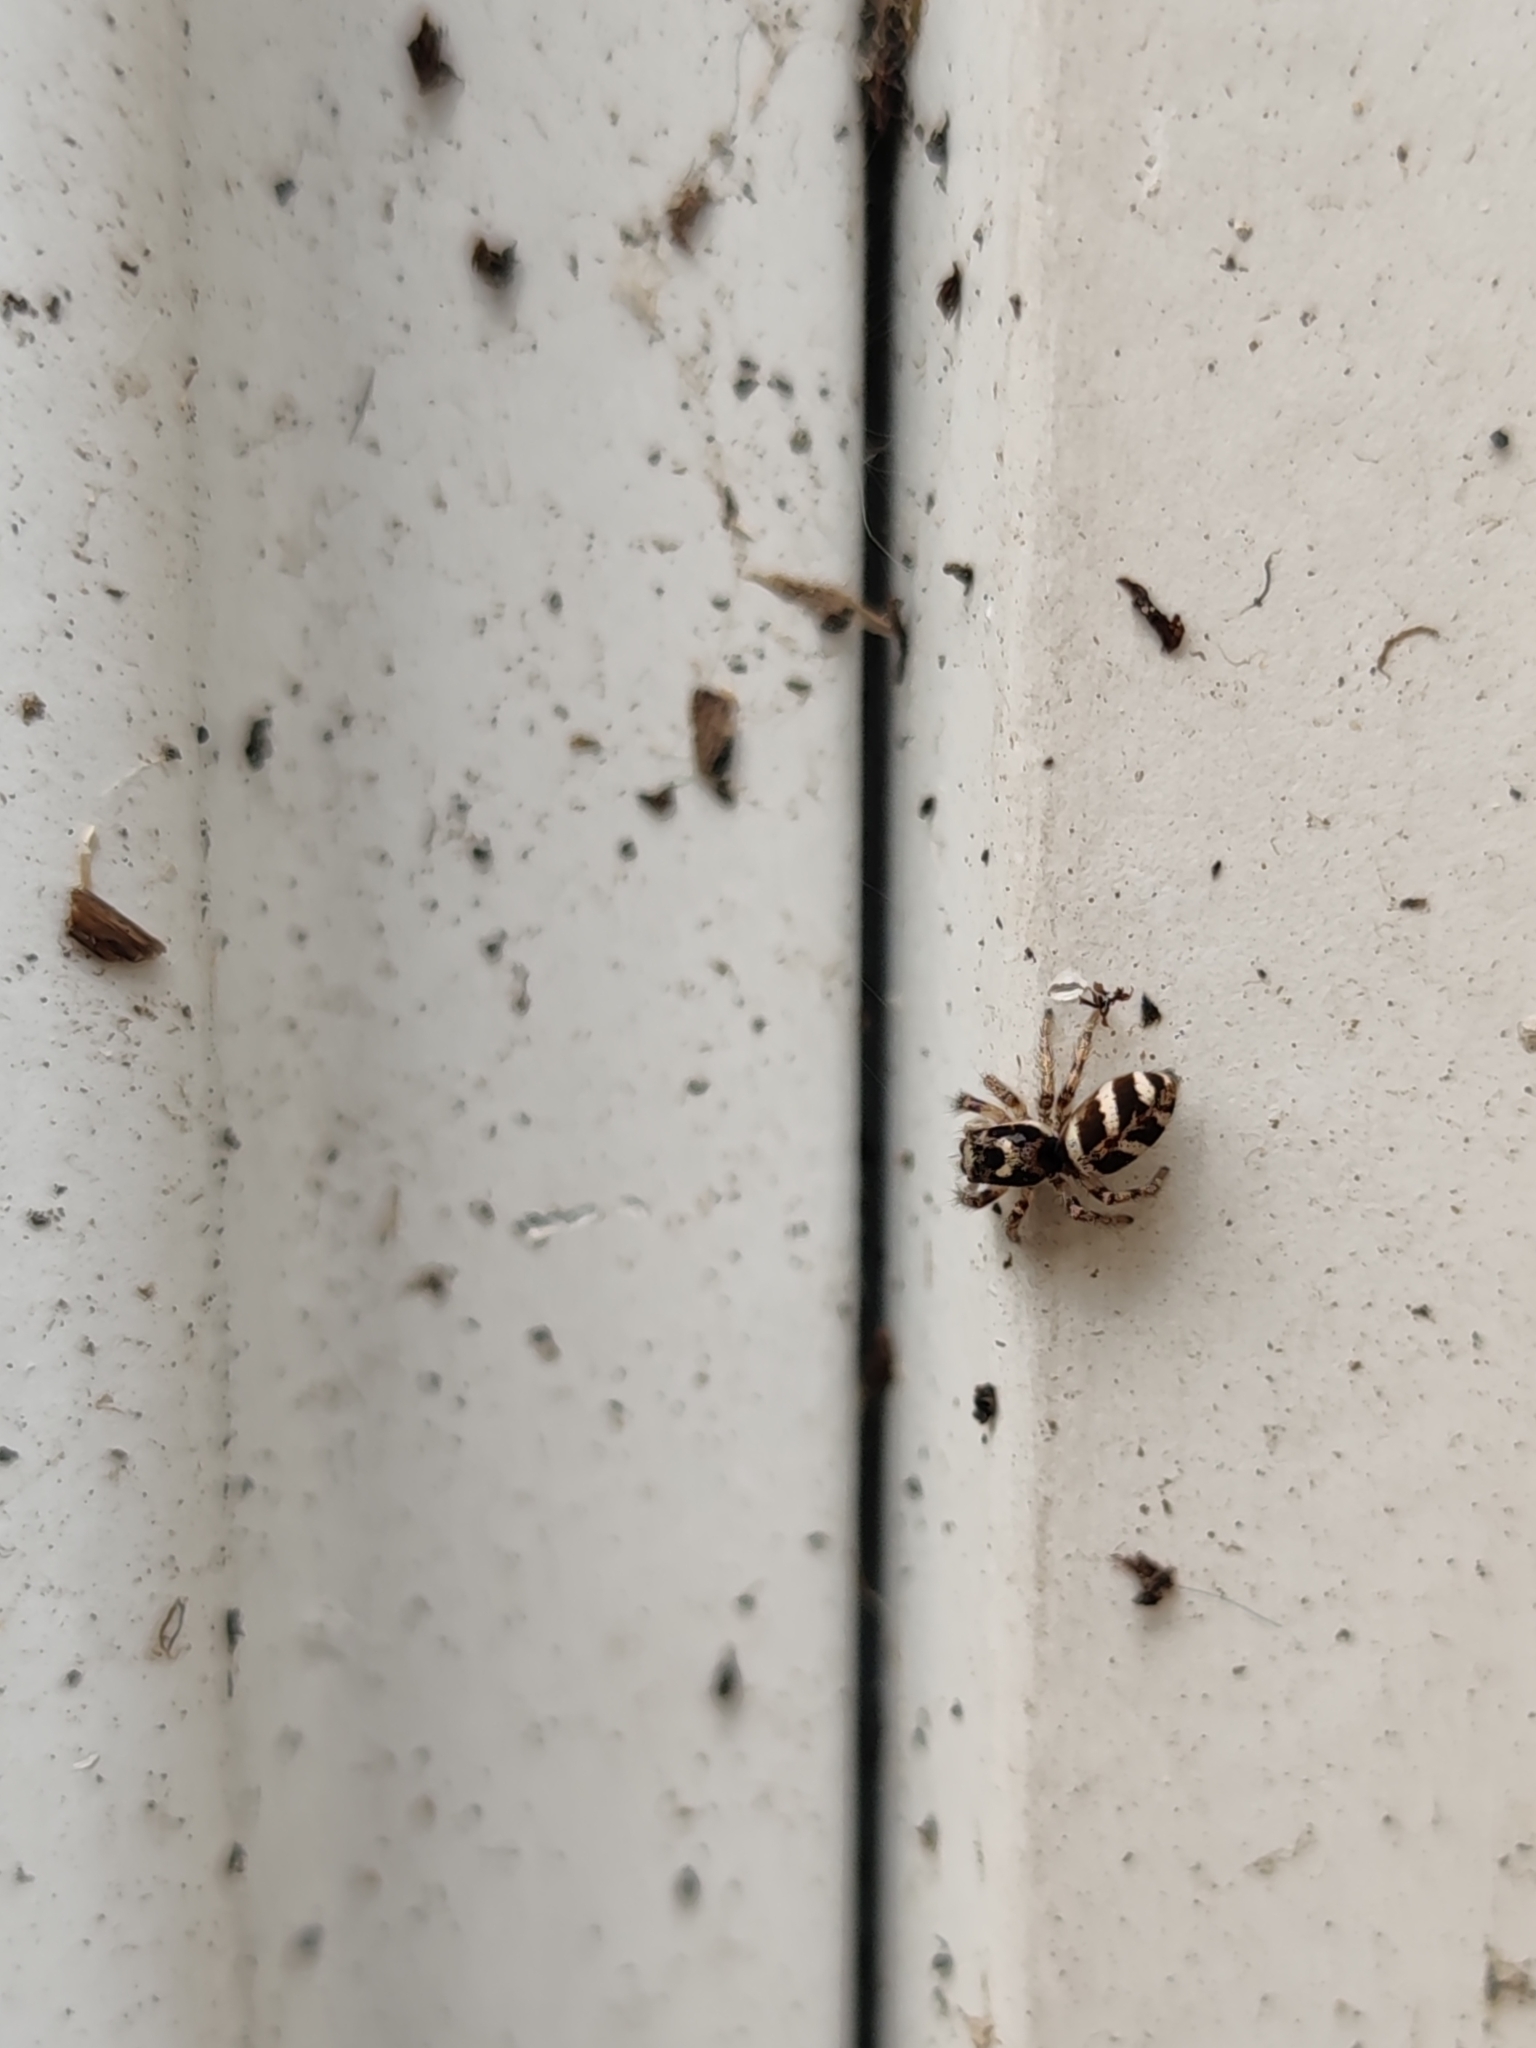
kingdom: Animalia
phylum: Arthropoda
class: Arachnida
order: Araneae
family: Salticidae
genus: Salticus
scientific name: Salticus scenicus
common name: Zebra jumper
